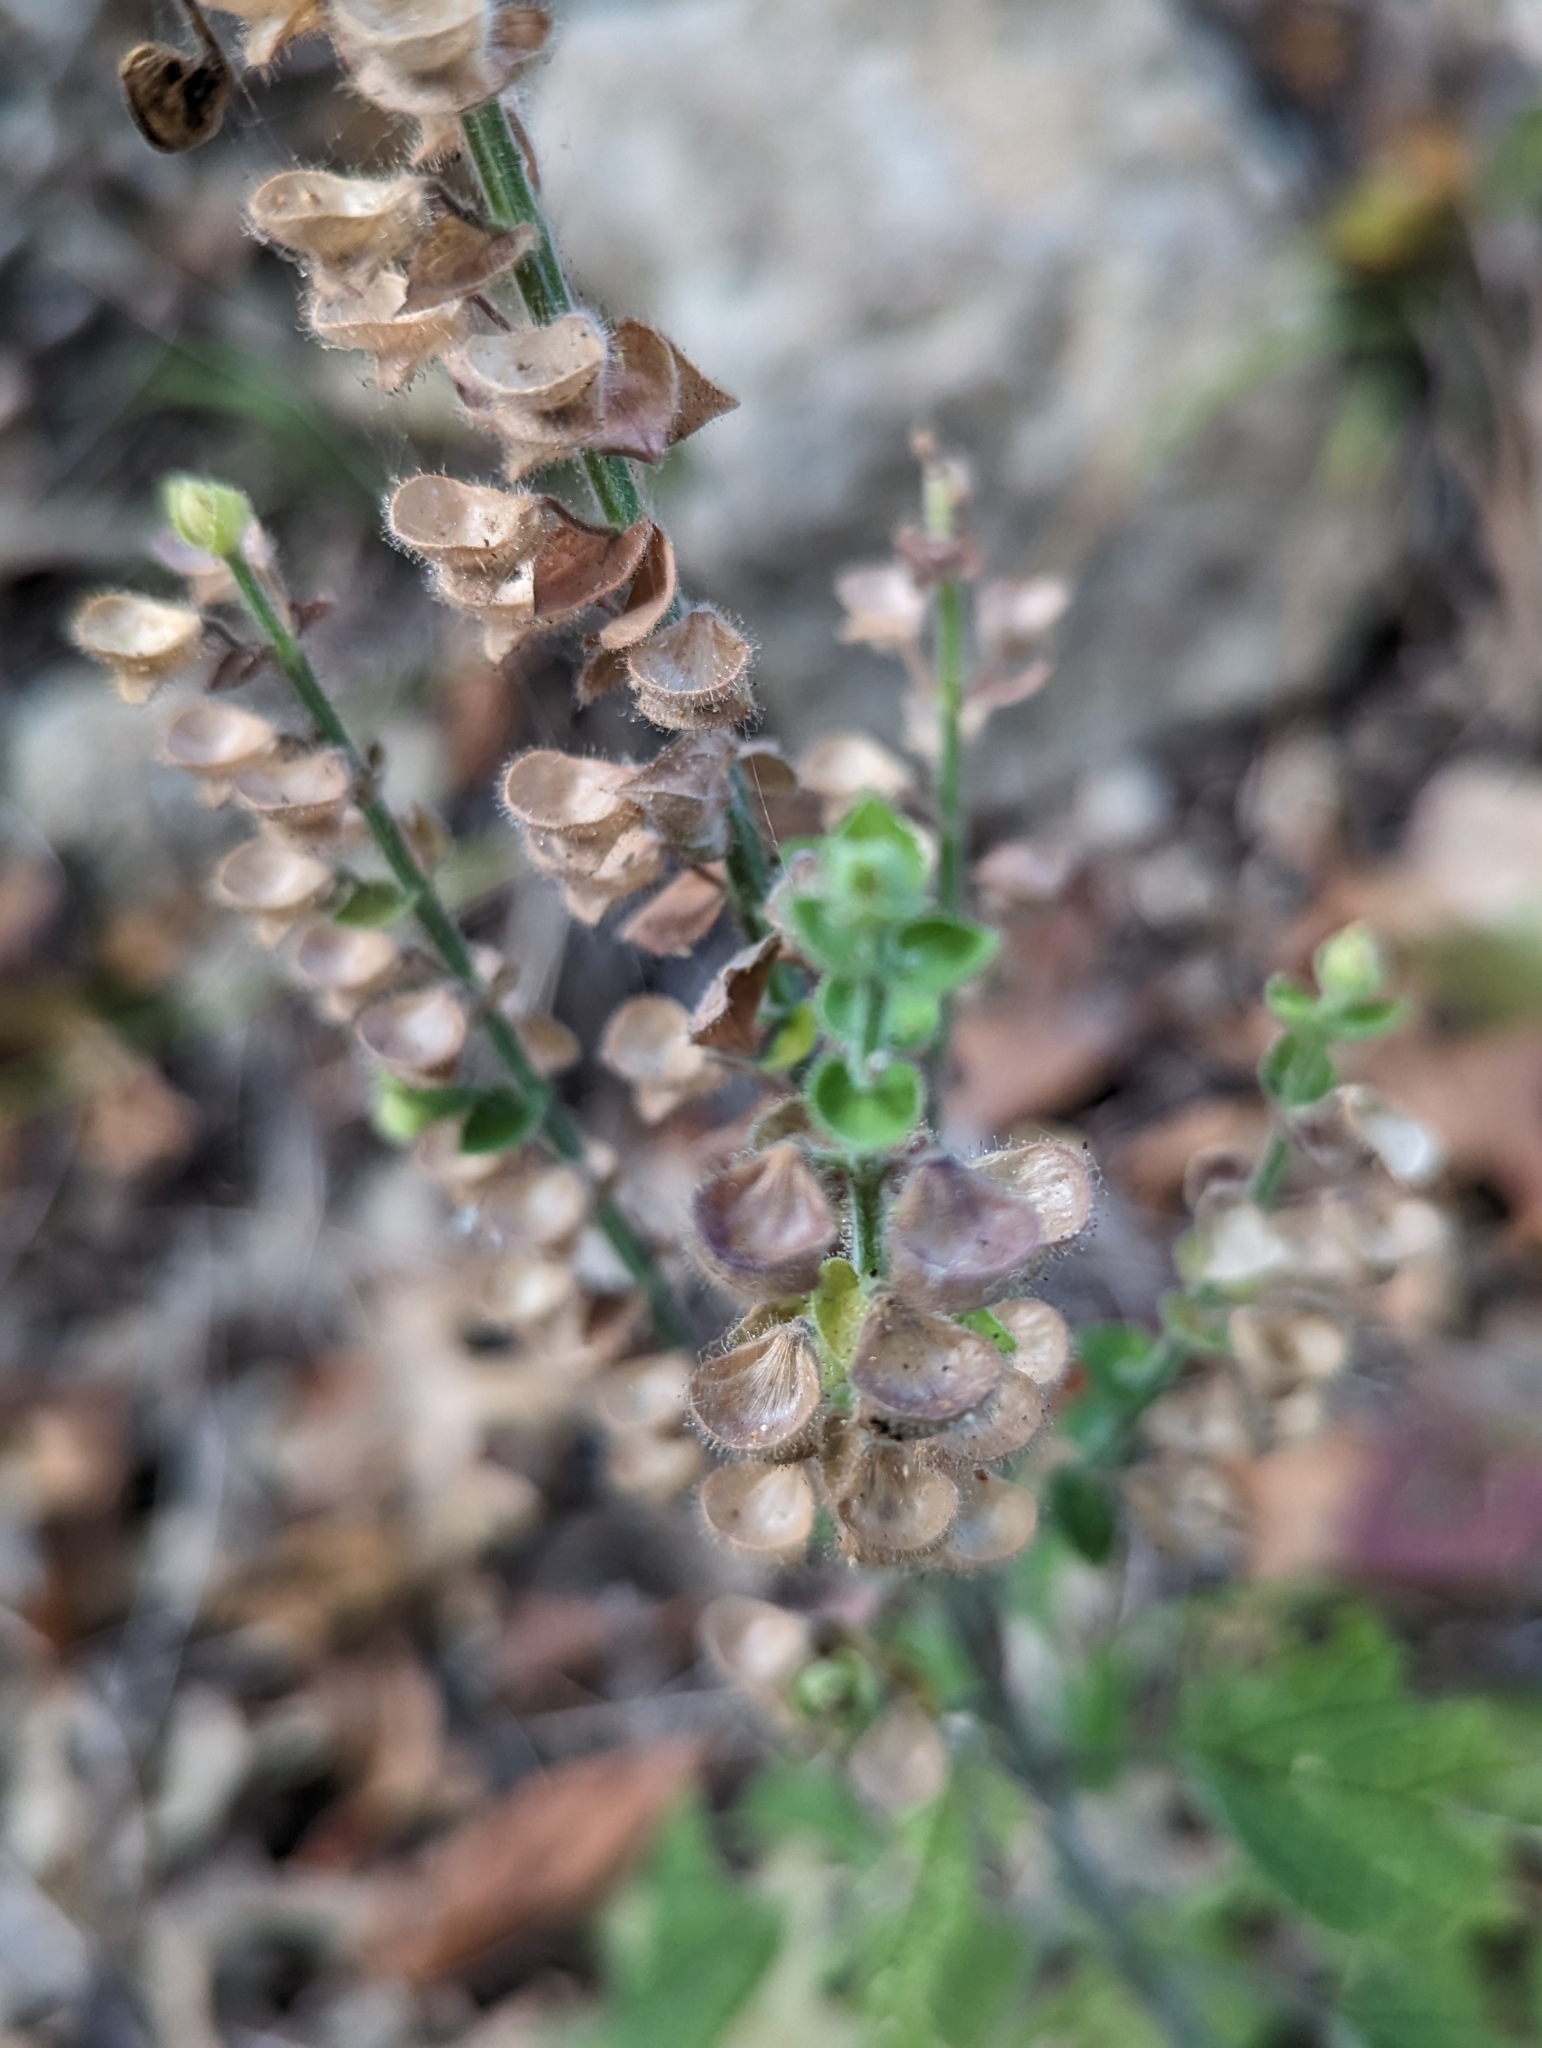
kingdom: Plantae
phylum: Tracheophyta
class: Magnoliopsida
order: Lamiales
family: Lamiaceae
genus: Scutellaria
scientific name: Scutellaria ovata
